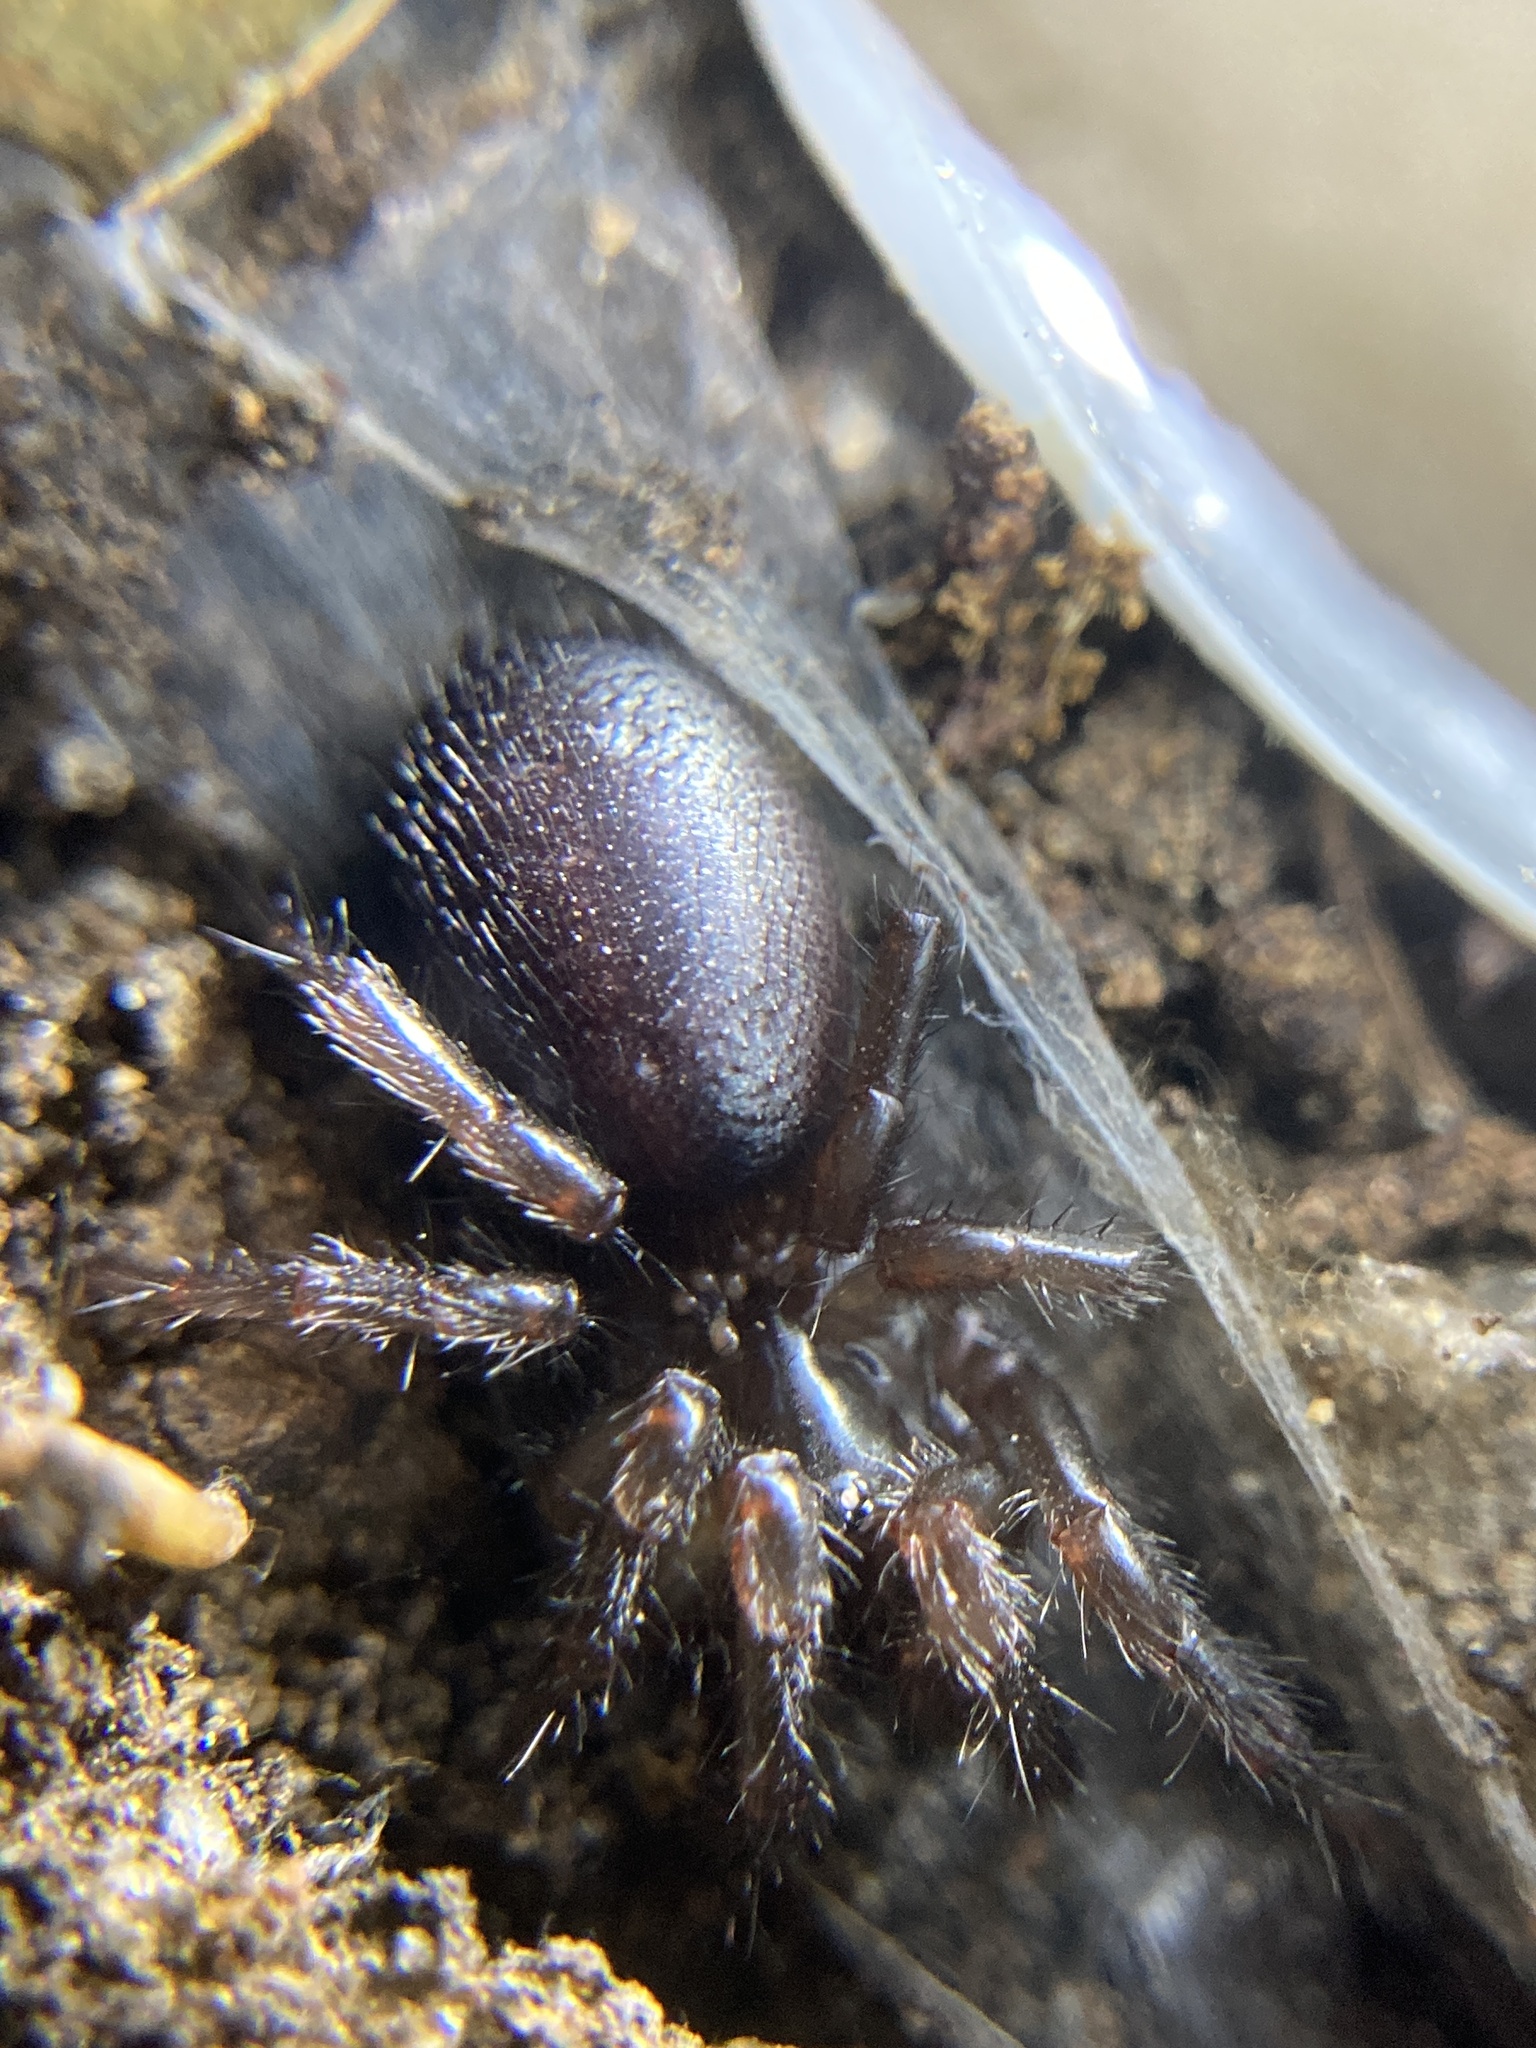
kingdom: Animalia
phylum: Arthropoda
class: Arachnida
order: Araneae
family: Atracidae
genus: Atrax
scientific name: Atrax robustus
